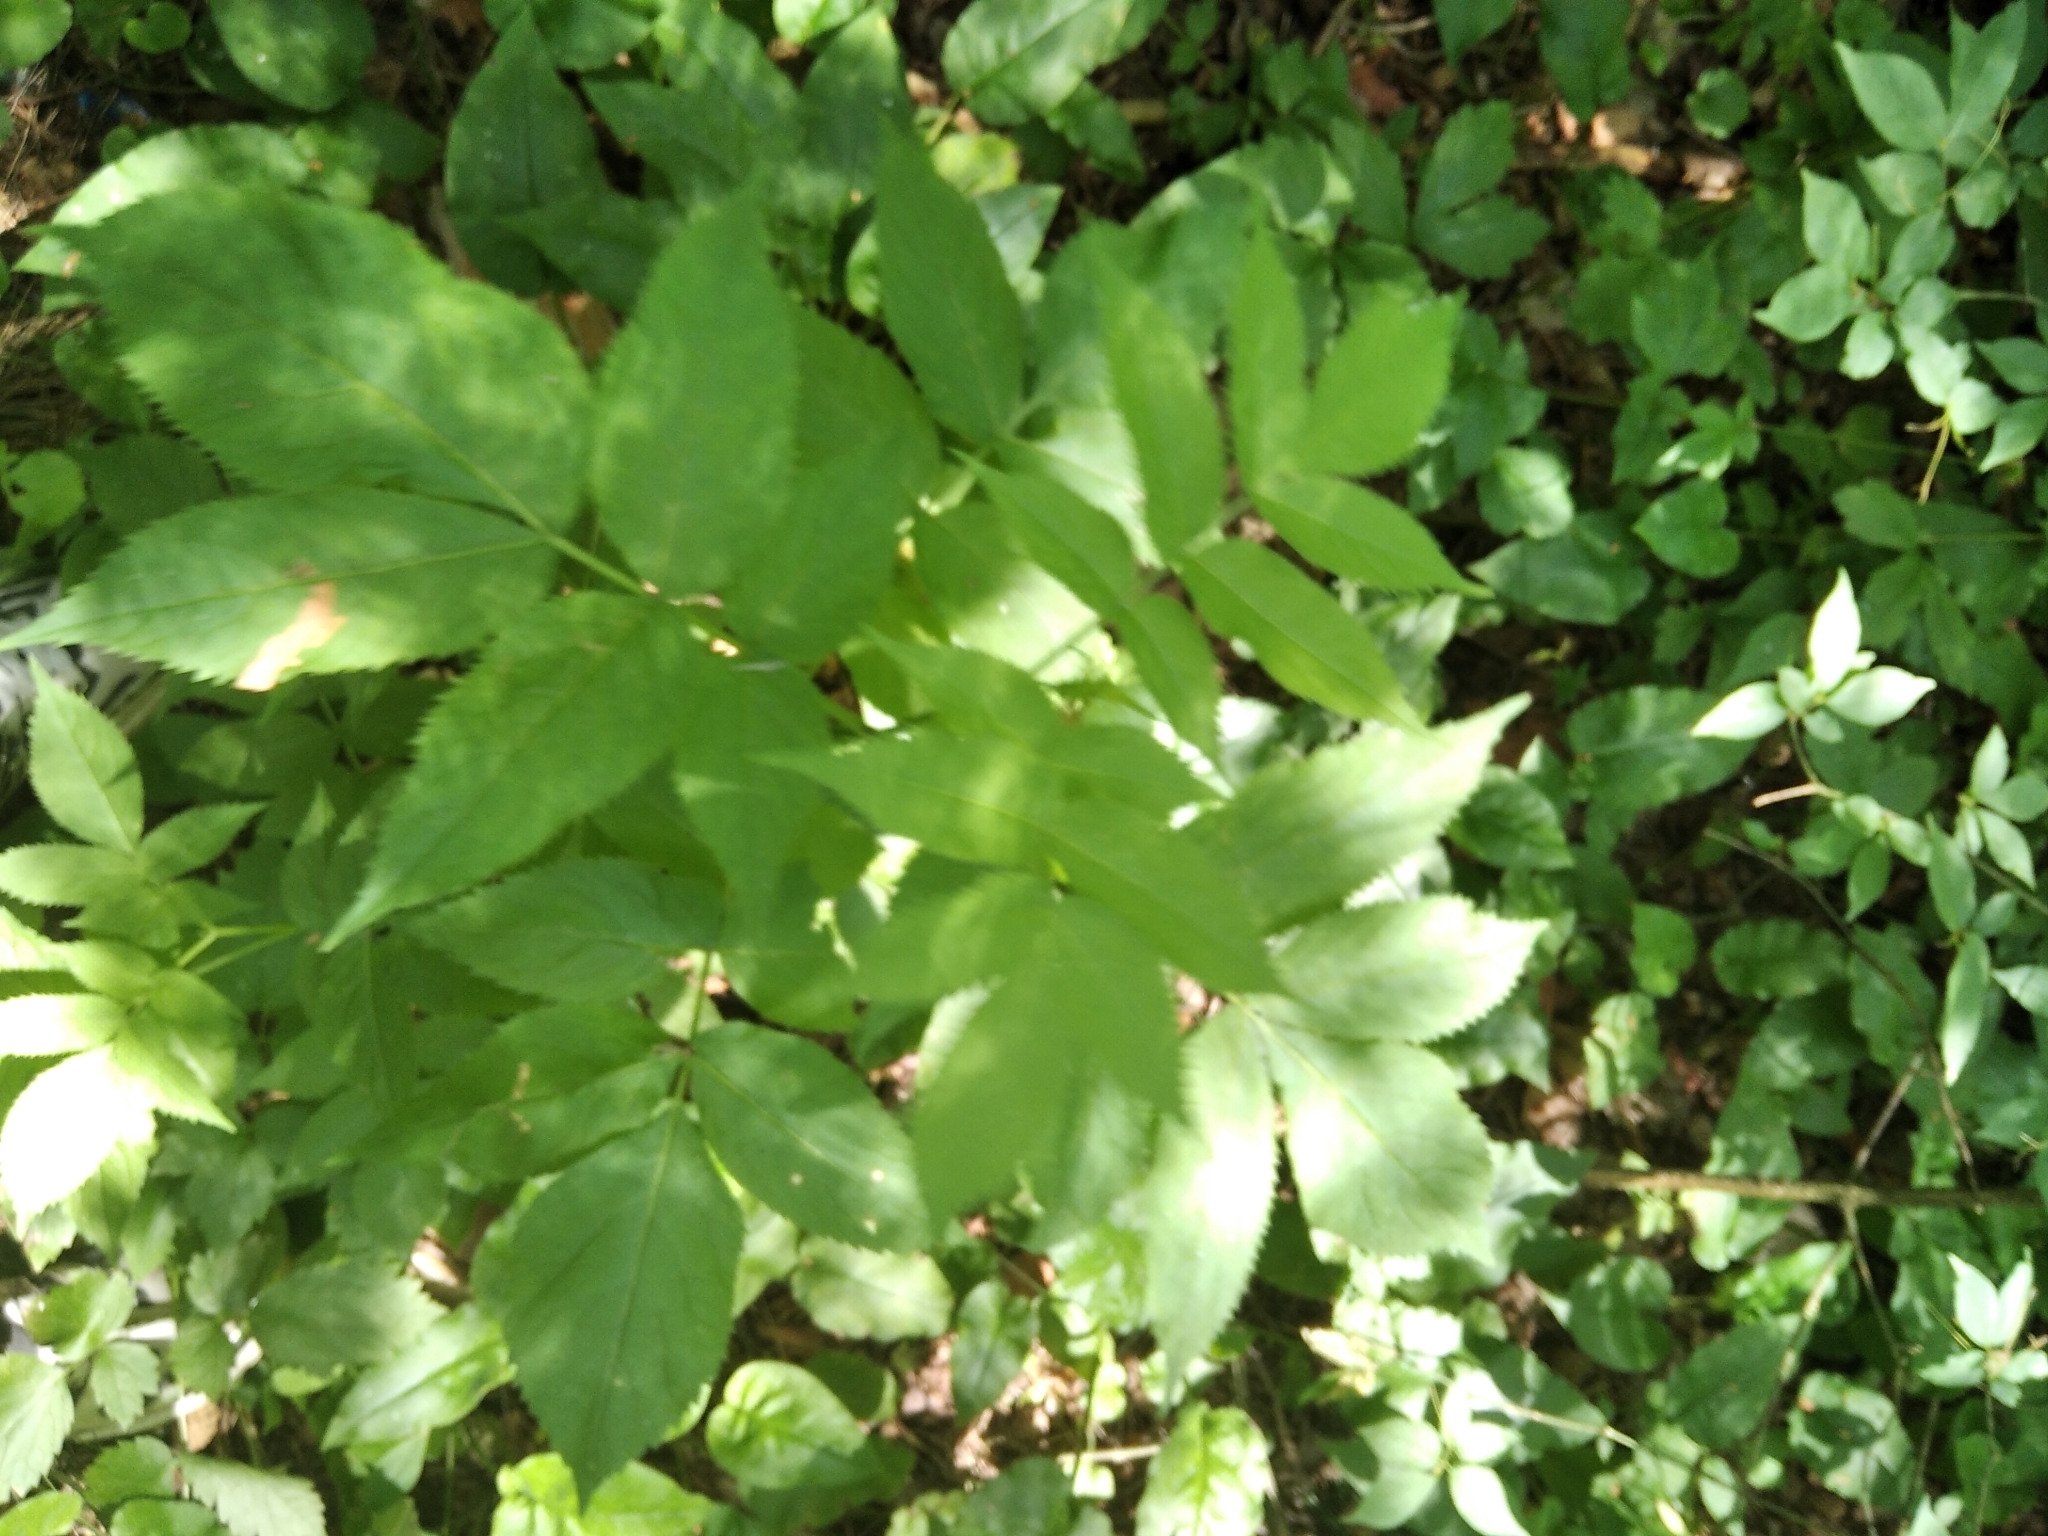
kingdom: Plantae
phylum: Tracheophyta
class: Magnoliopsida
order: Dipsacales
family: Viburnaceae
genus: Sambucus
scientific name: Sambucus racemosa
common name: Red-berried elder
